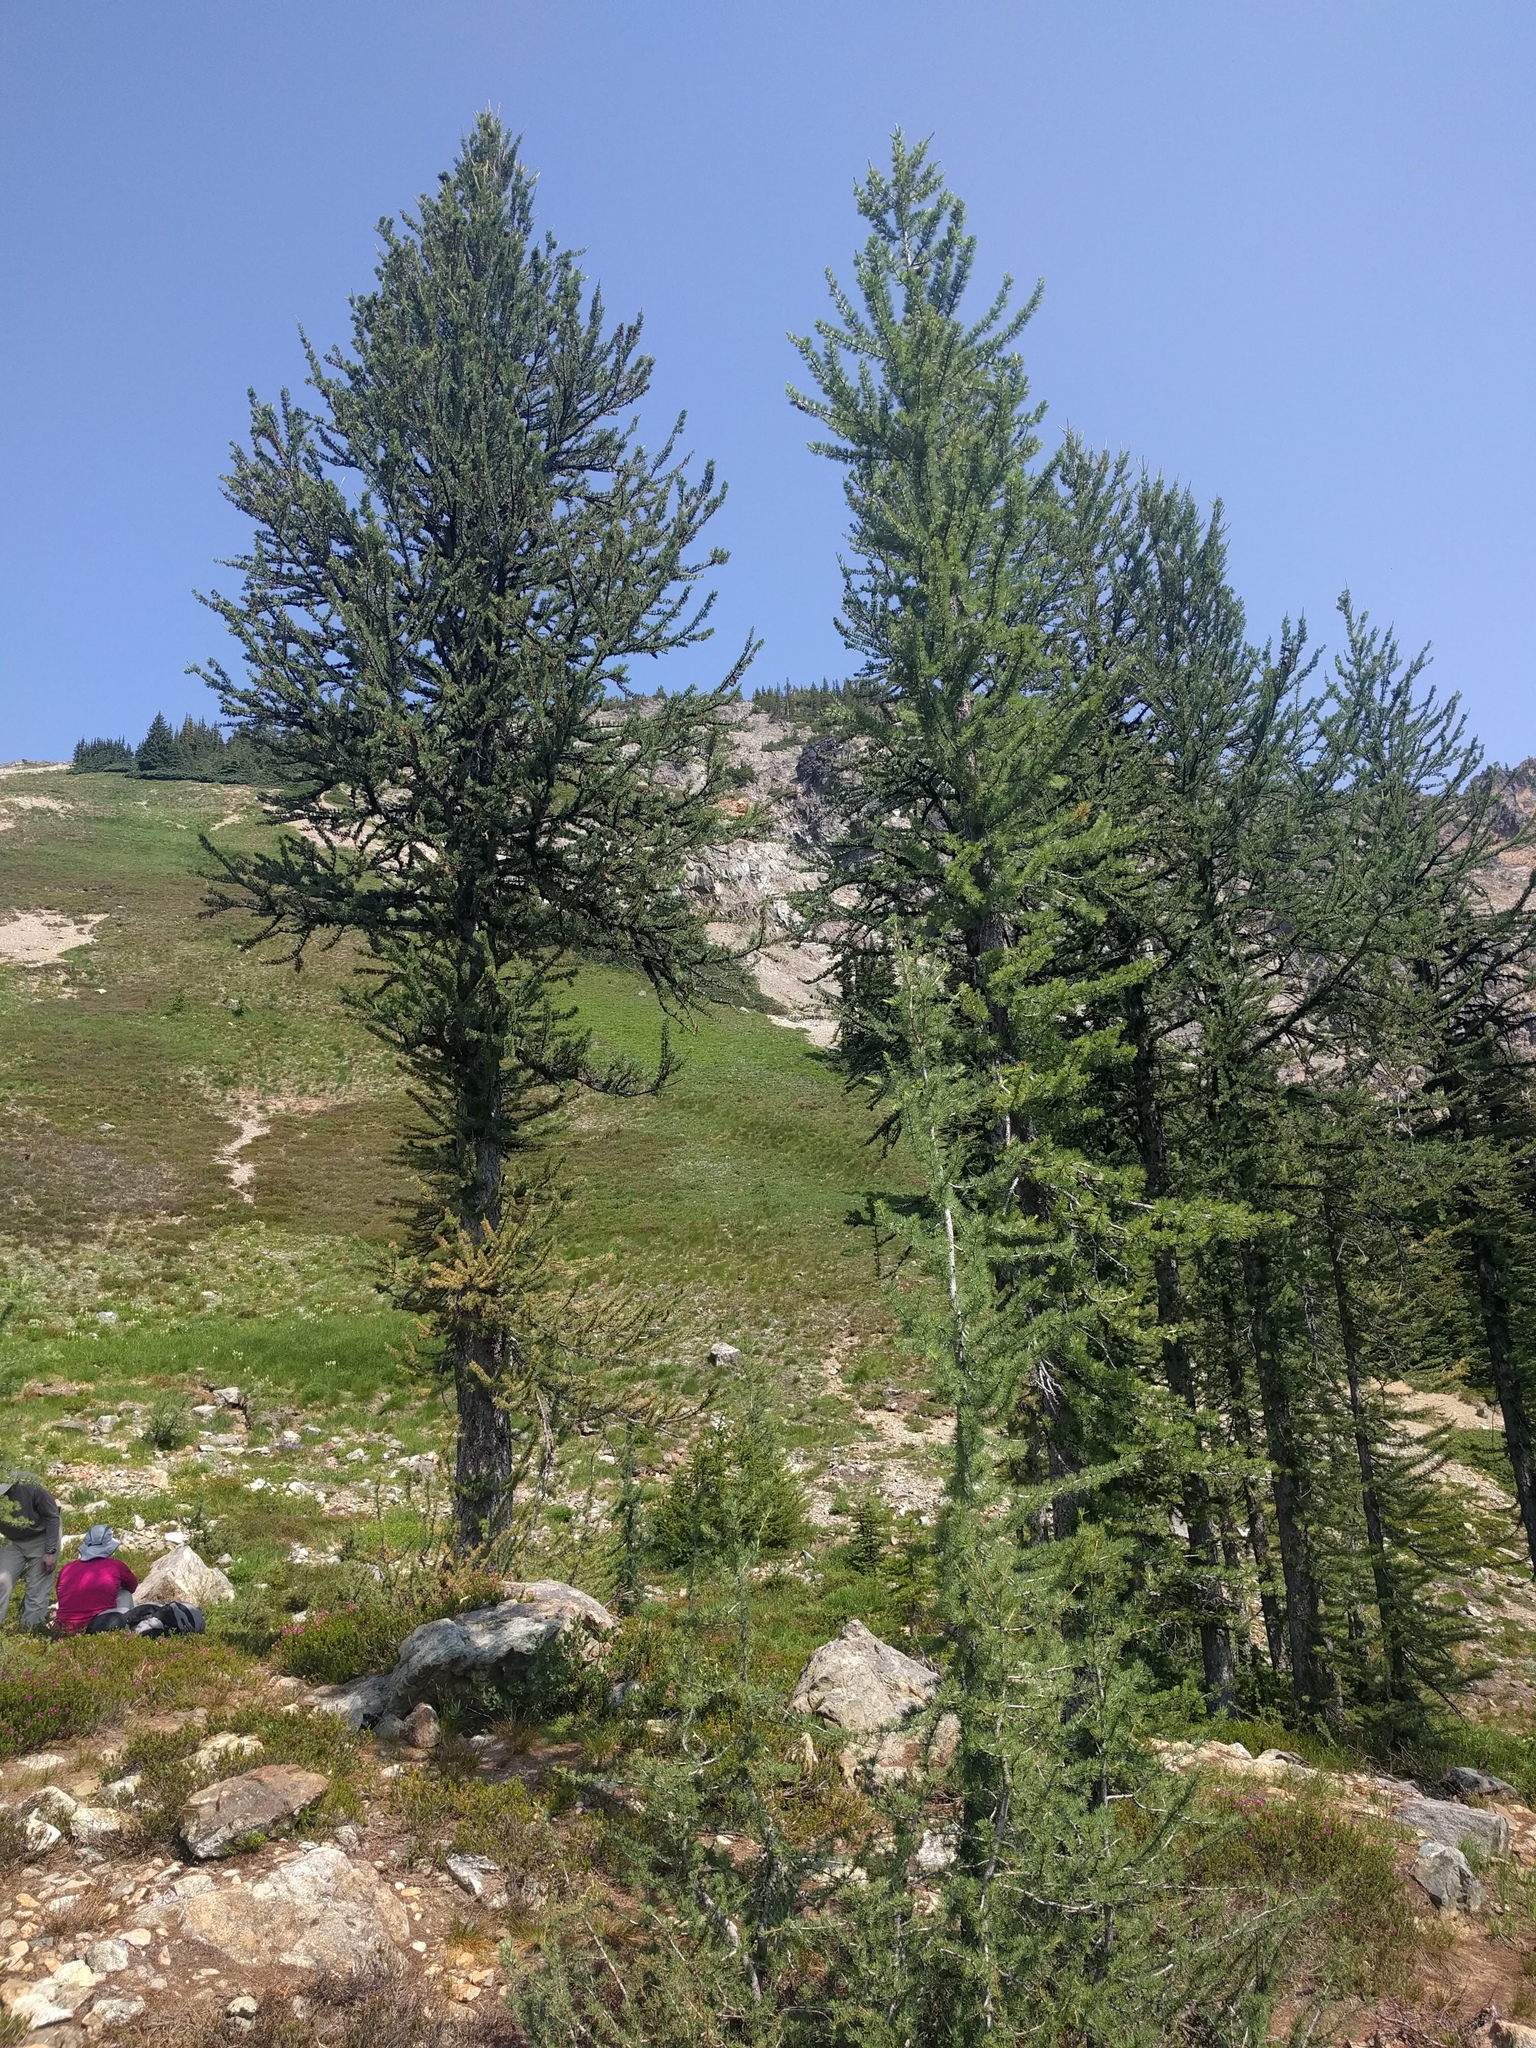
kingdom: Plantae
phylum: Tracheophyta
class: Pinopsida
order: Pinales
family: Pinaceae
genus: Larix
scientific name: Larix lyallii
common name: Alpine larch
